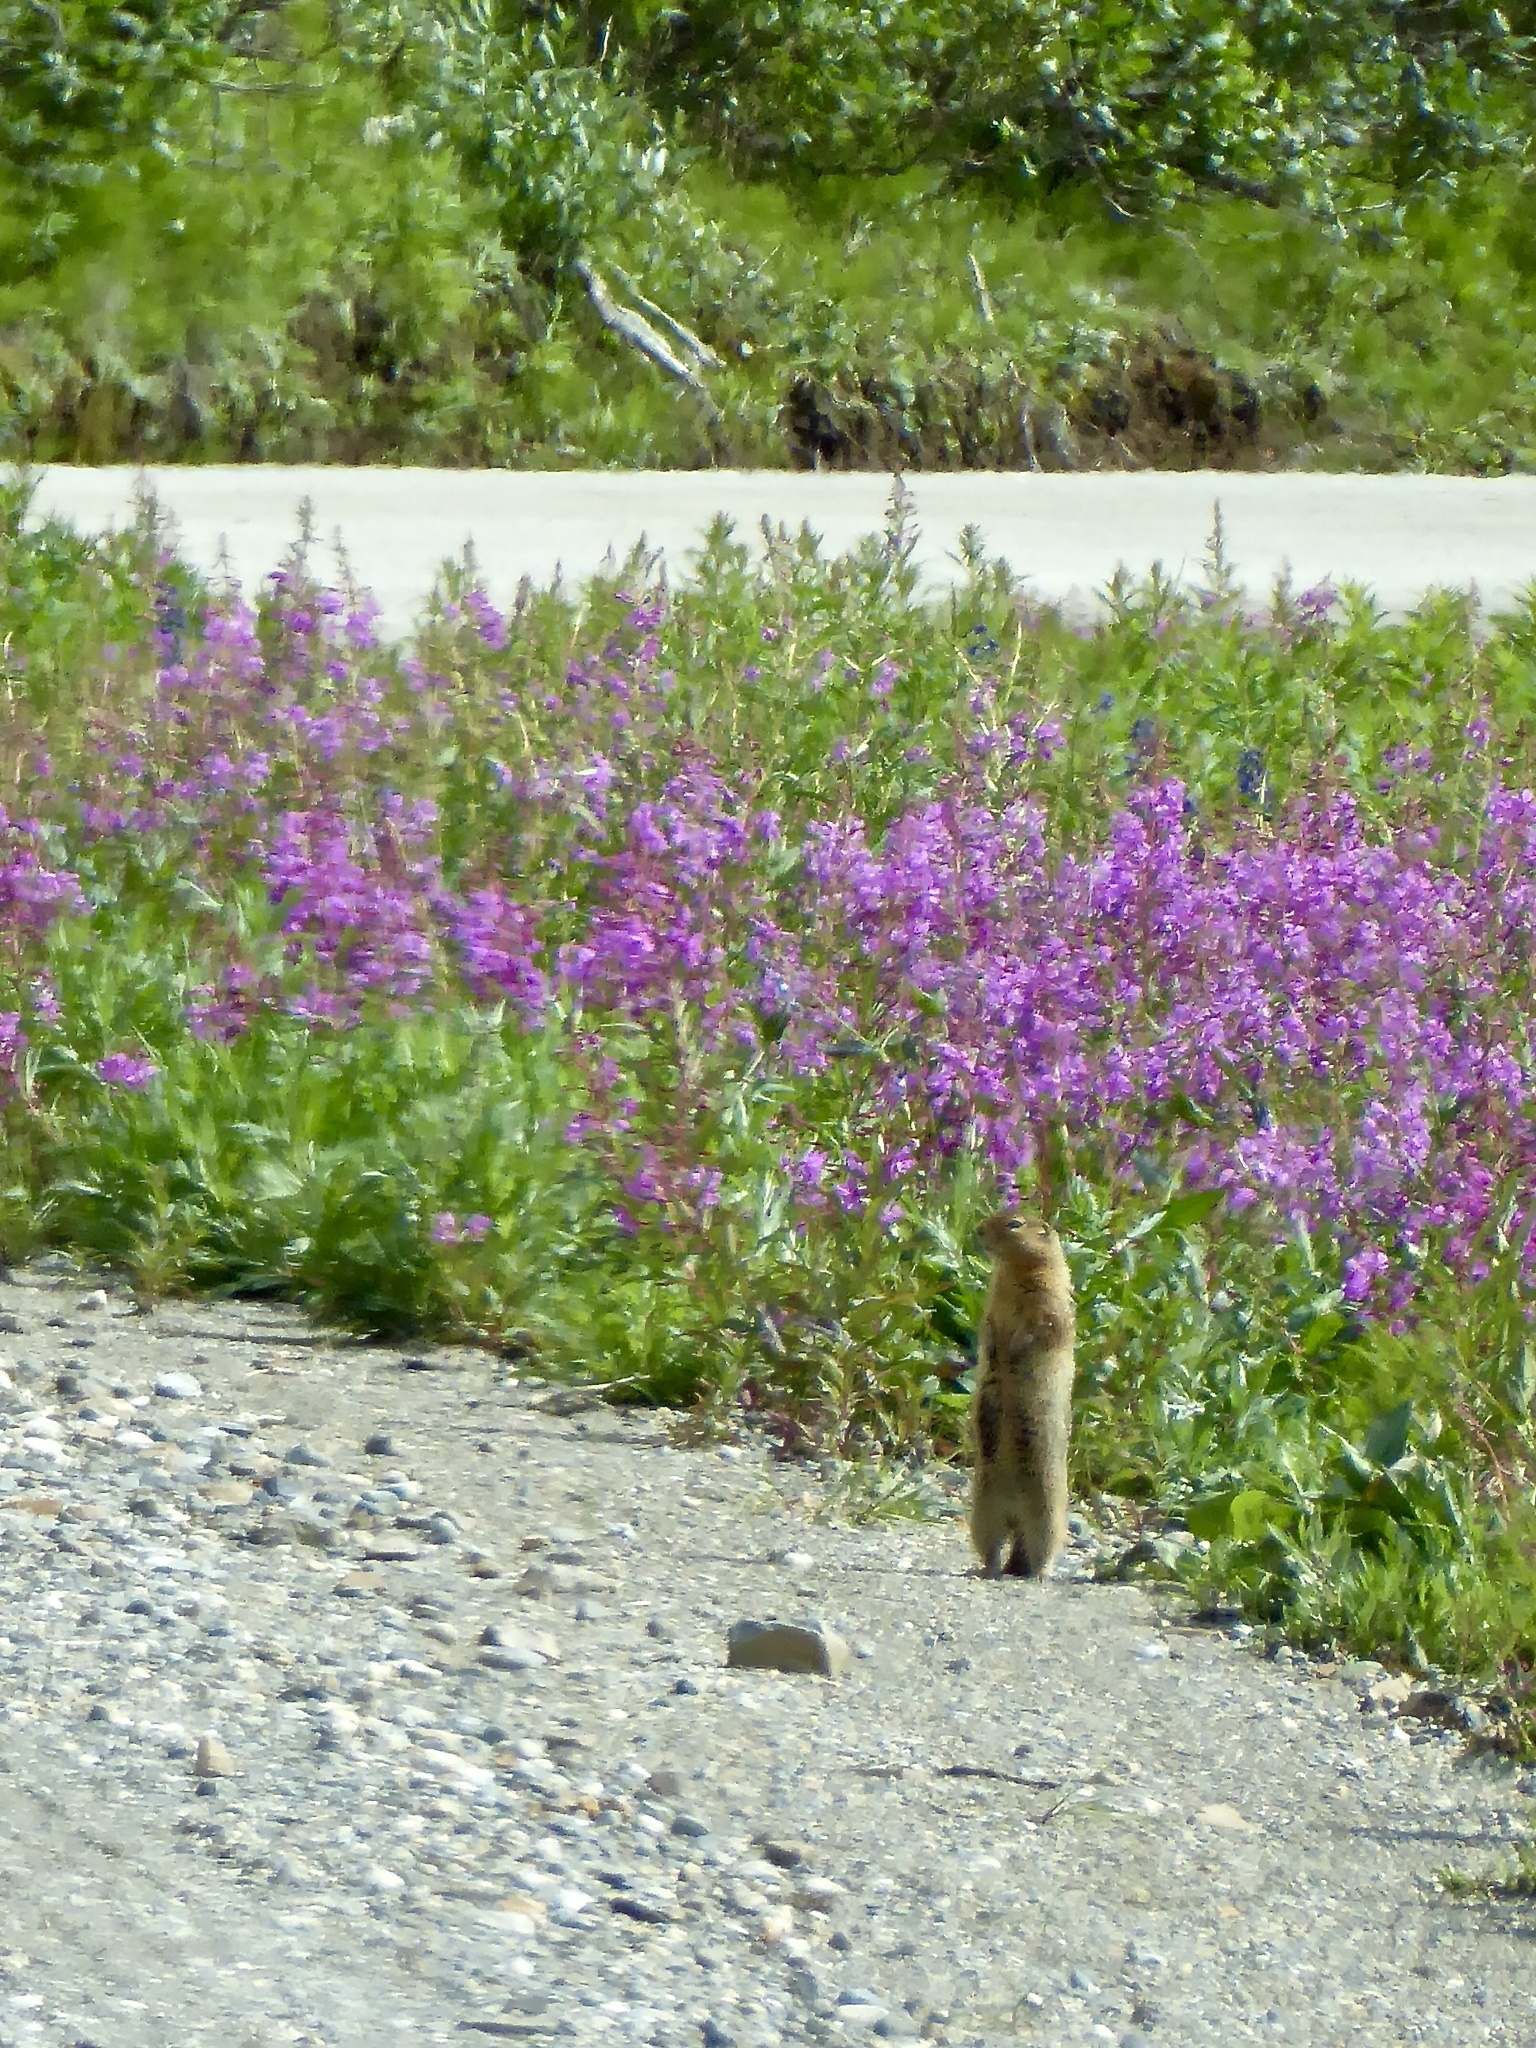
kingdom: Animalia
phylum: Chordata
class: Mammalia
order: Rodentia
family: Sciuridae
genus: Urocitellus
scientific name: Urocitellus parryii
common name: Arctic ground squirrel
